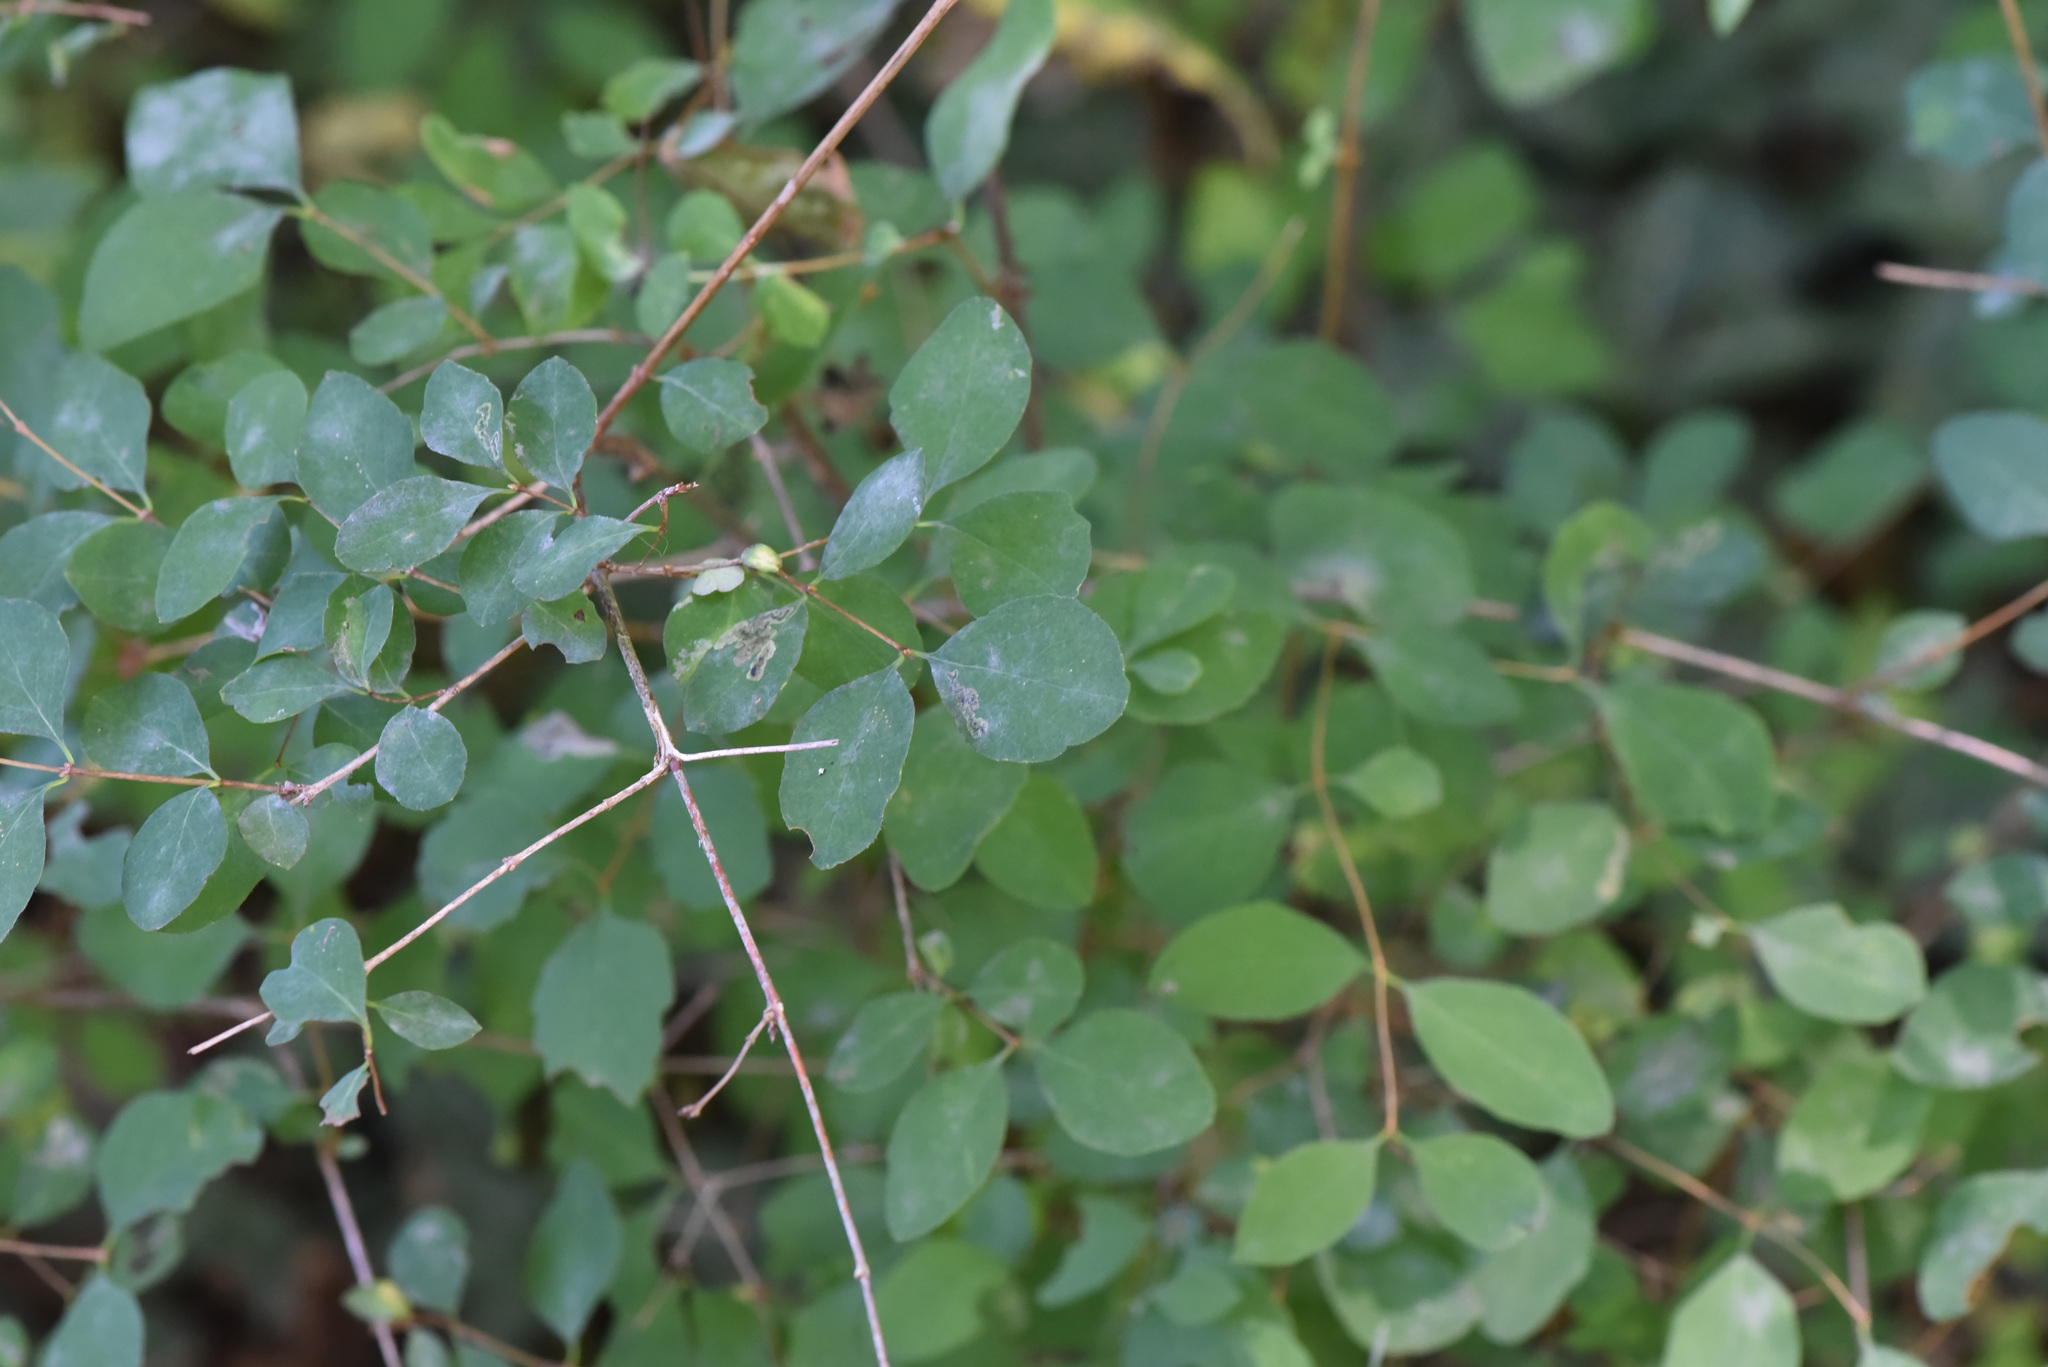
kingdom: Fungi
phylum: Ascomycota
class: Leotiomycetes
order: Helotiales
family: Erysiphaceae
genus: Erysiphe
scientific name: Erysiphe symphoricarpi
